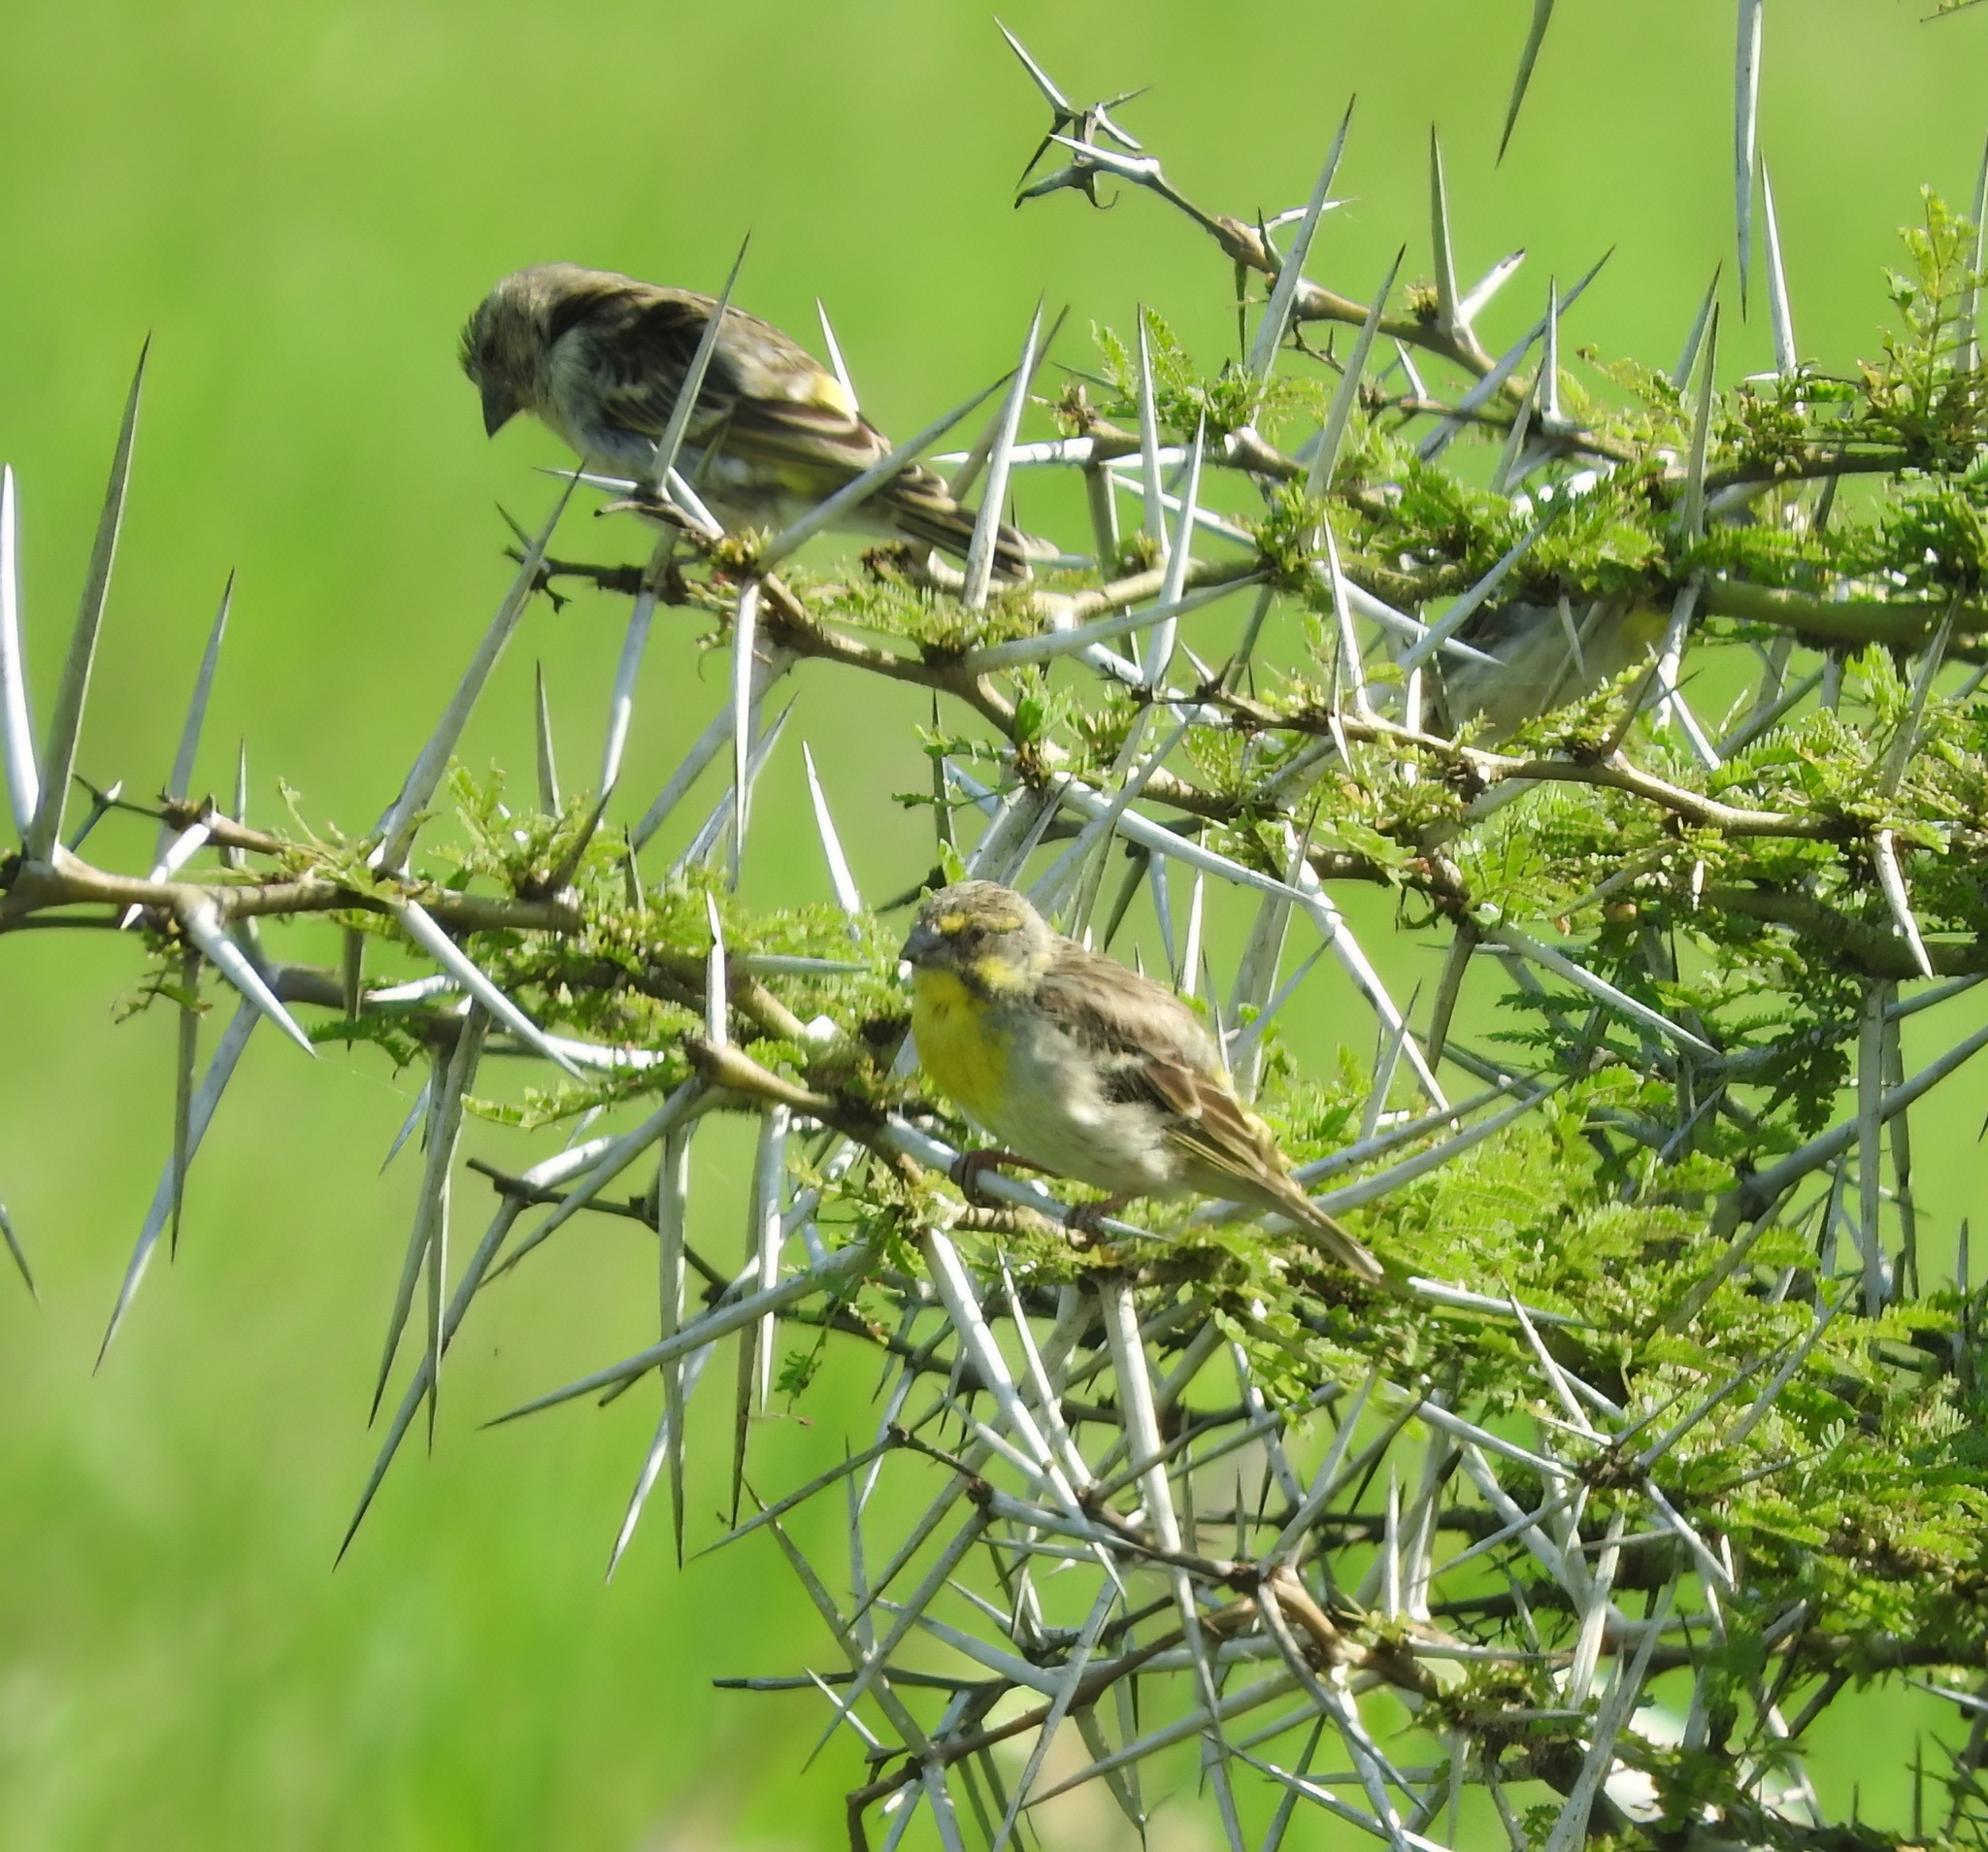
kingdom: Animalia
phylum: Chordata
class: Aves
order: Passeriformes
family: Fringillidae
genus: Crithagra
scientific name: Crithagra citrinipectus
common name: Lemon-breasted canary
